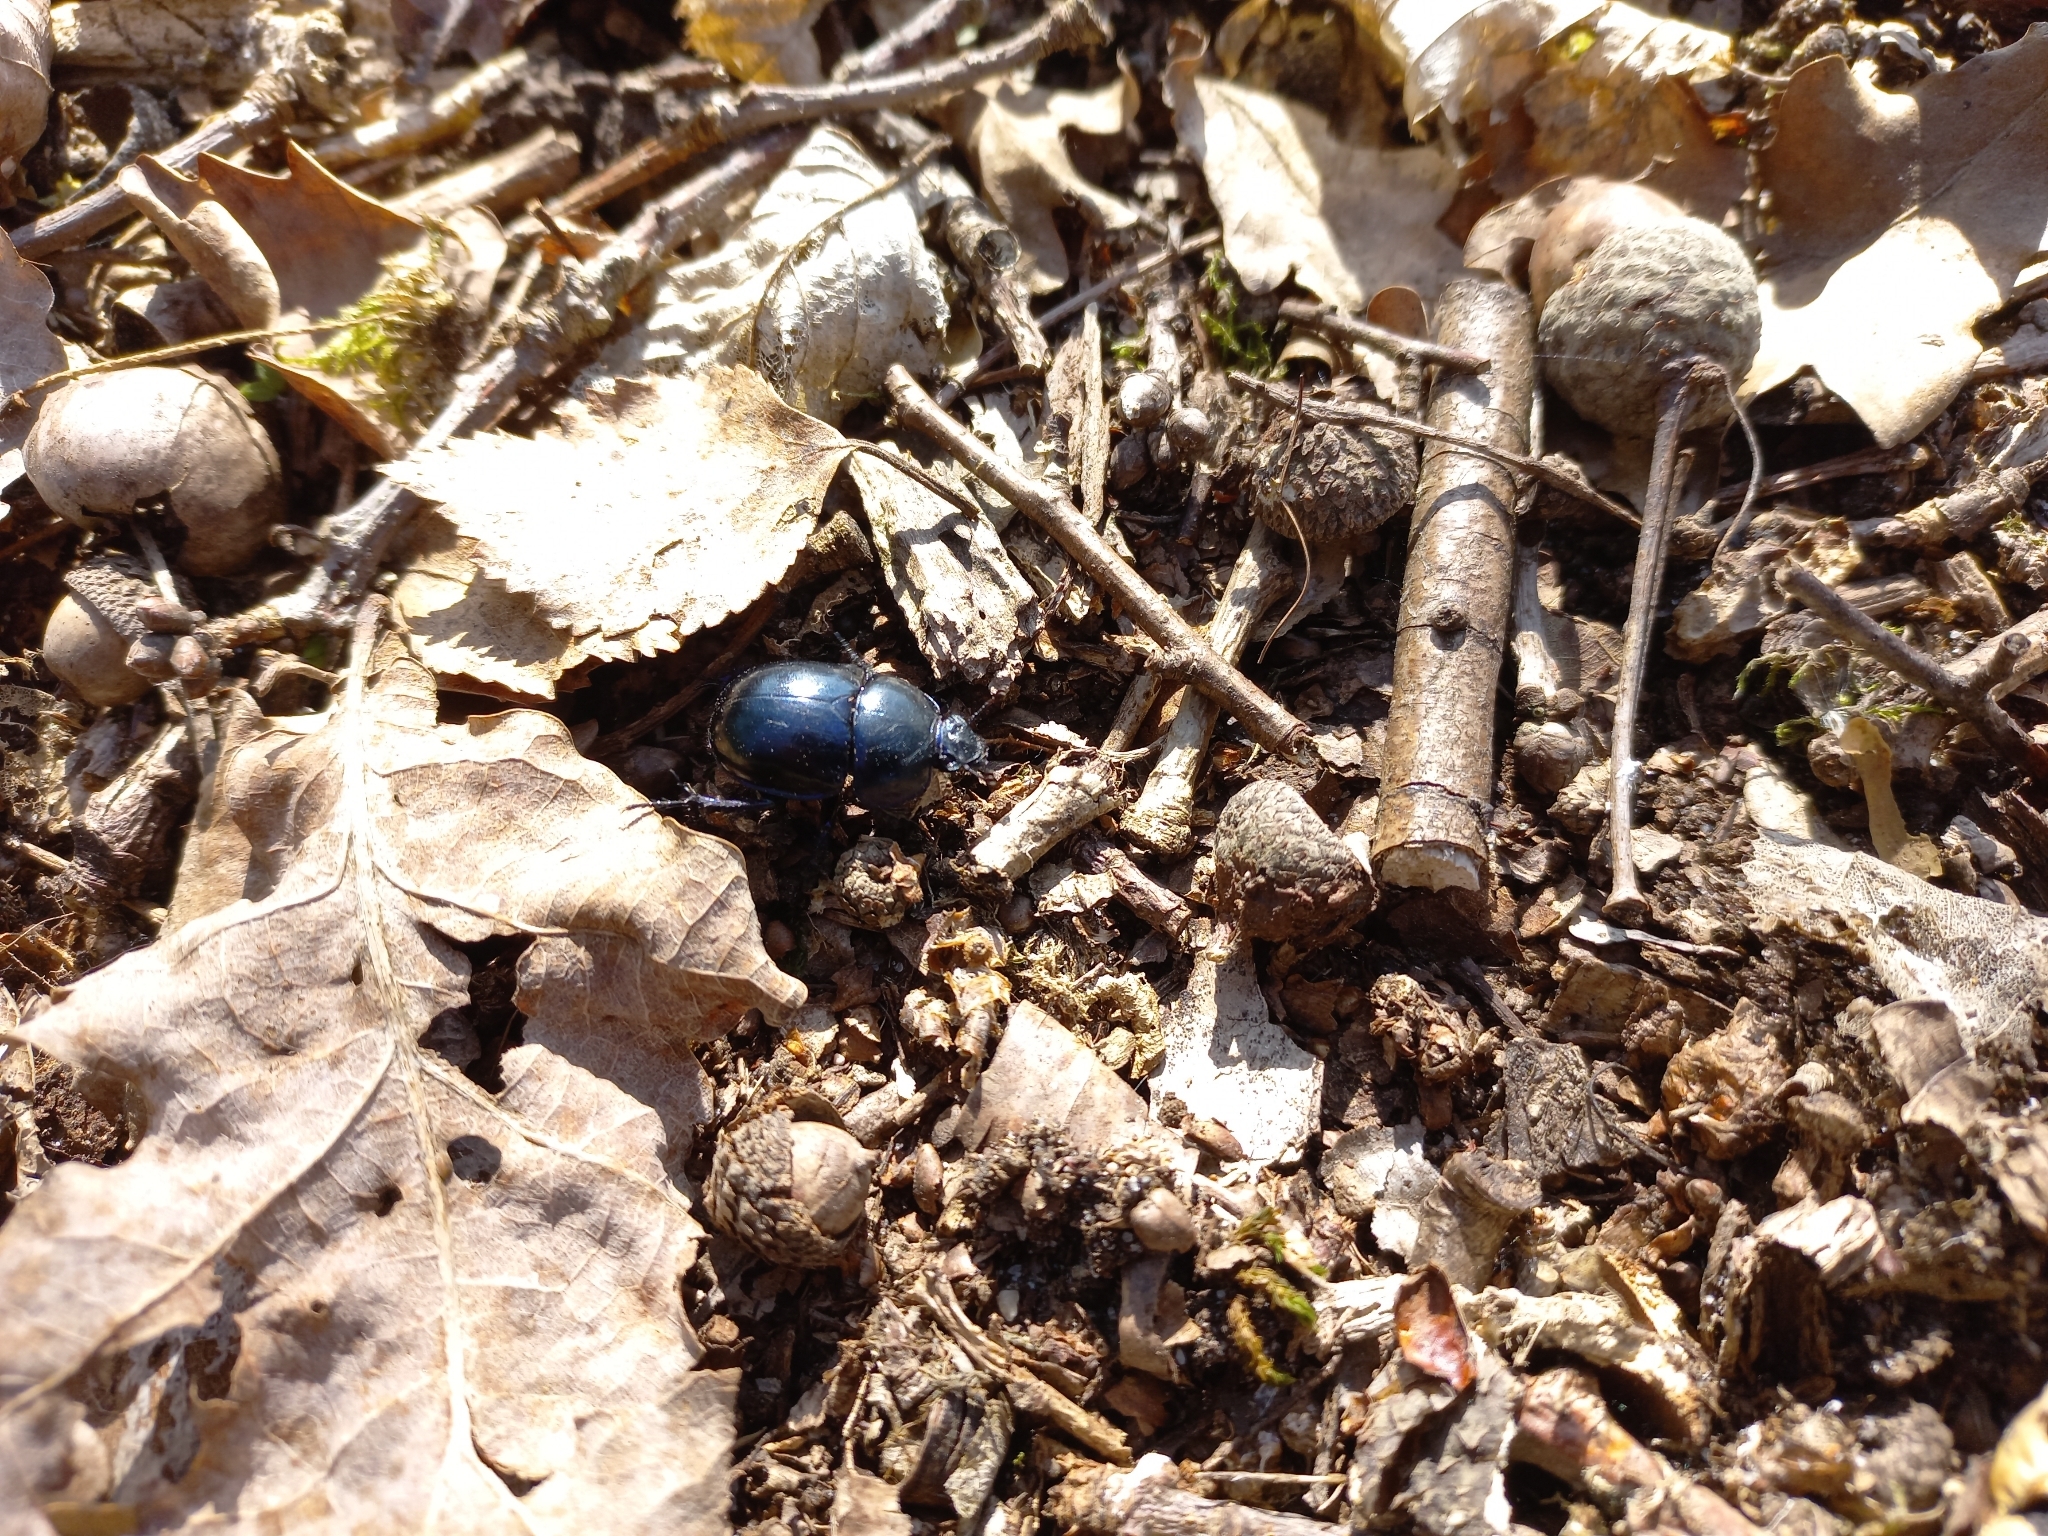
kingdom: Animalia
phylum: Arthropoda
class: Insecta
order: Coleoptera
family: Geotrupidae
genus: Trypocopris
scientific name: Trypocopris vernalis
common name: Spring dumbledor
